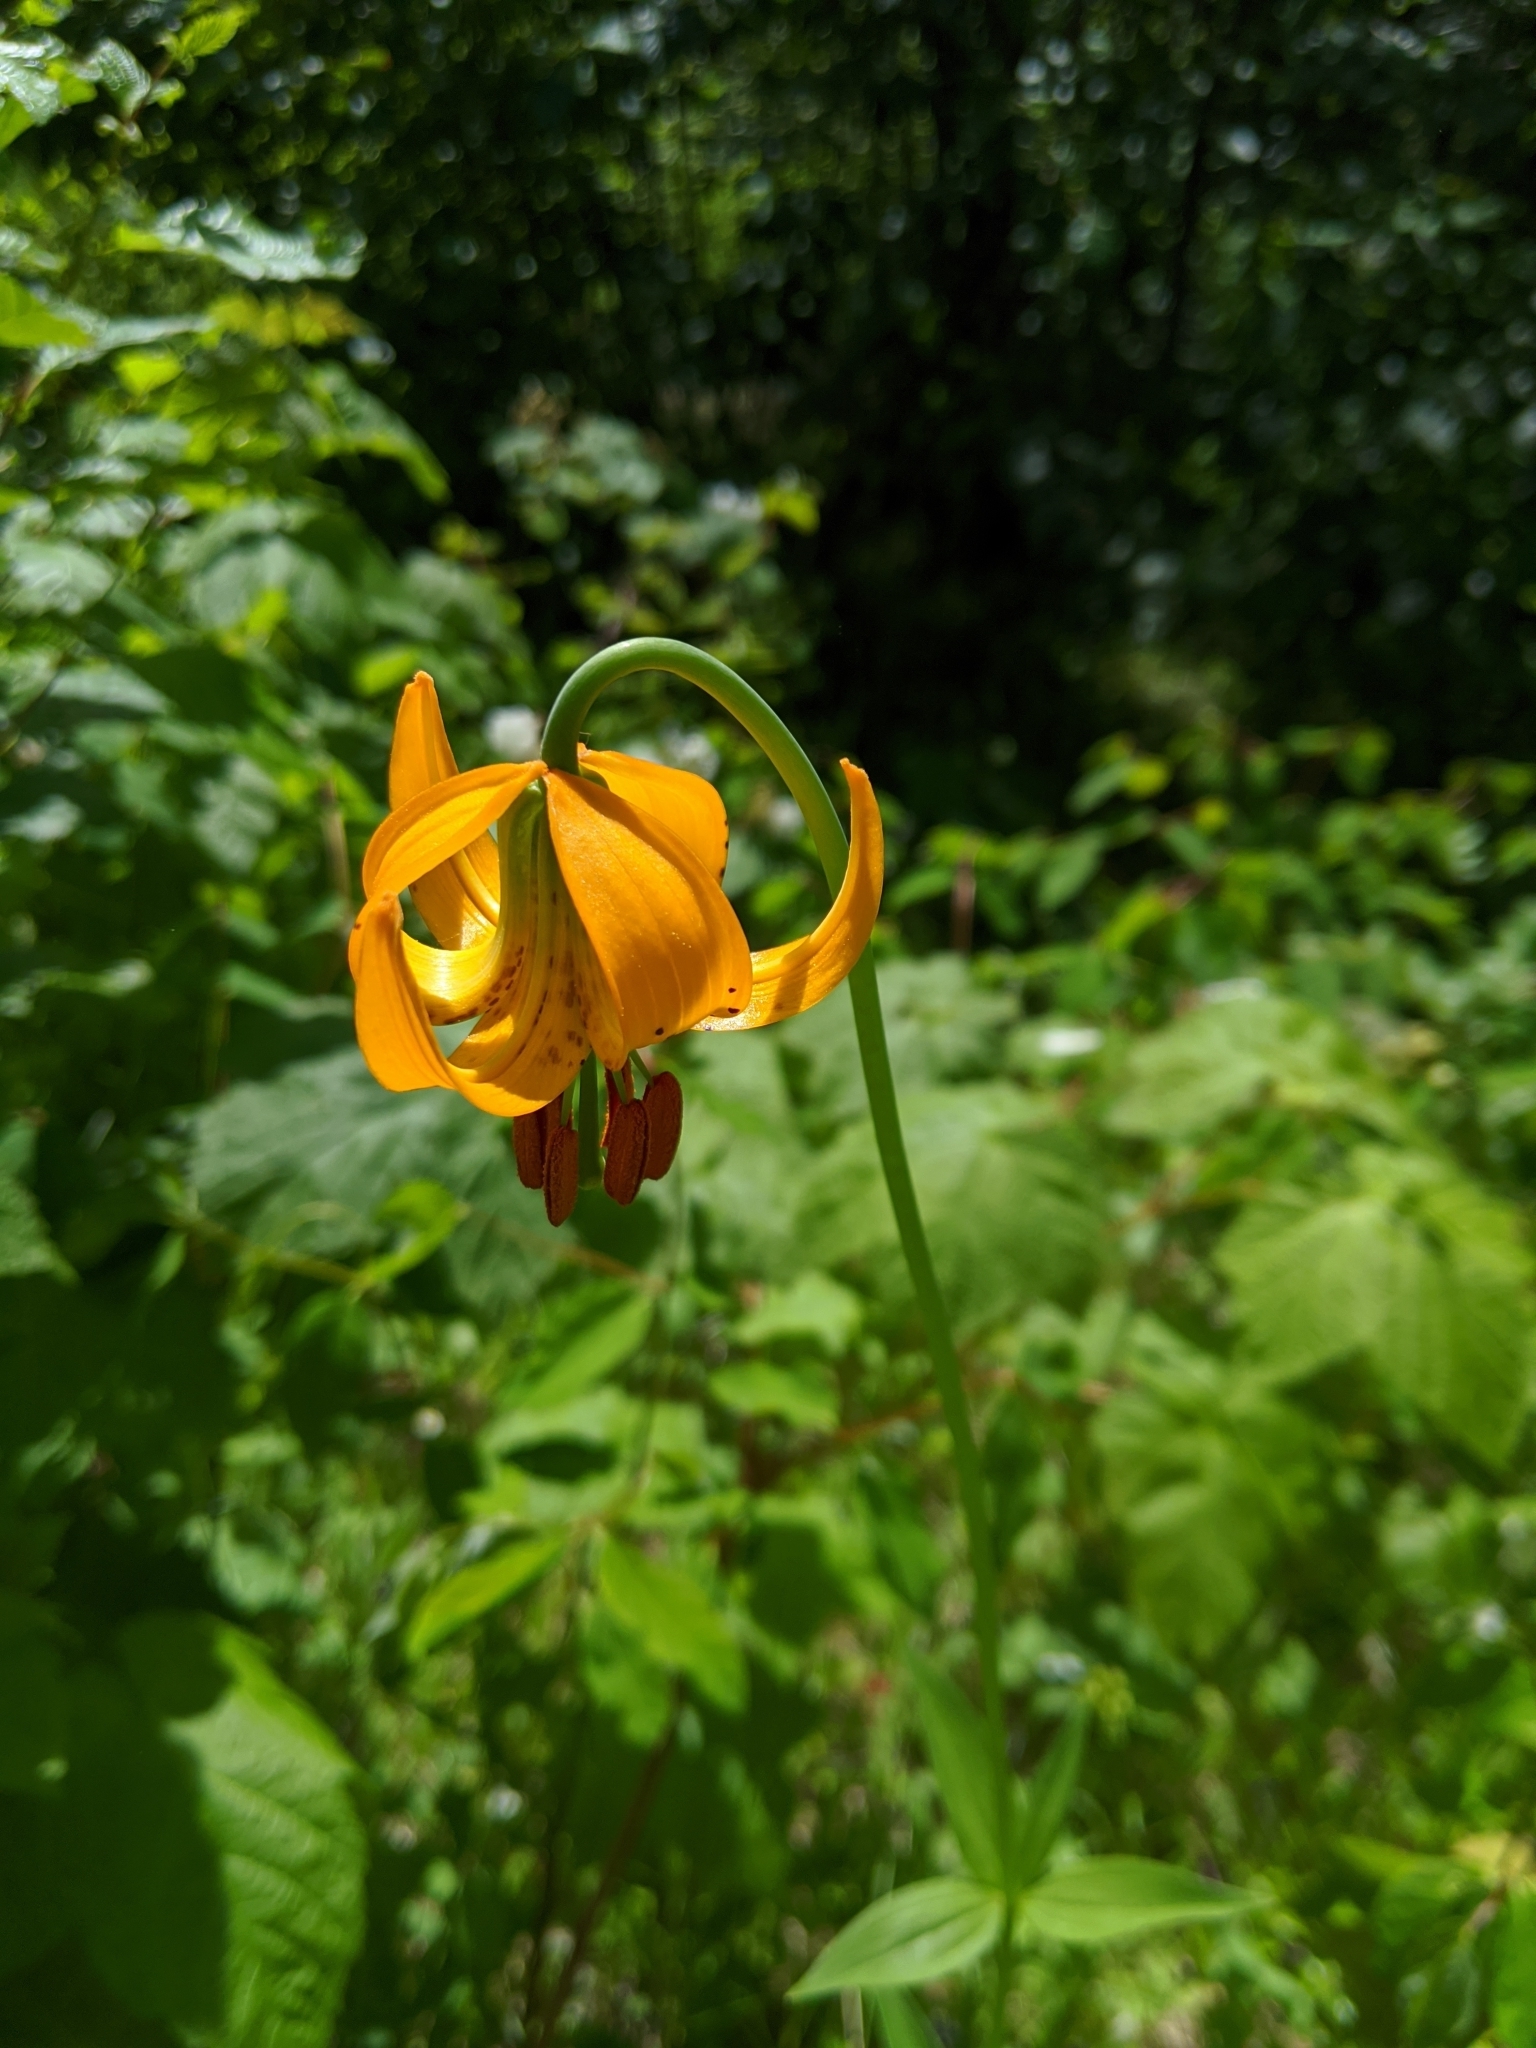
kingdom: Plantae
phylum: Tracheophyta
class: Liliopsida
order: Liliales
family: Liliaceae
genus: Lilium
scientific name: Lilium columbianum
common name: Columbia lily
